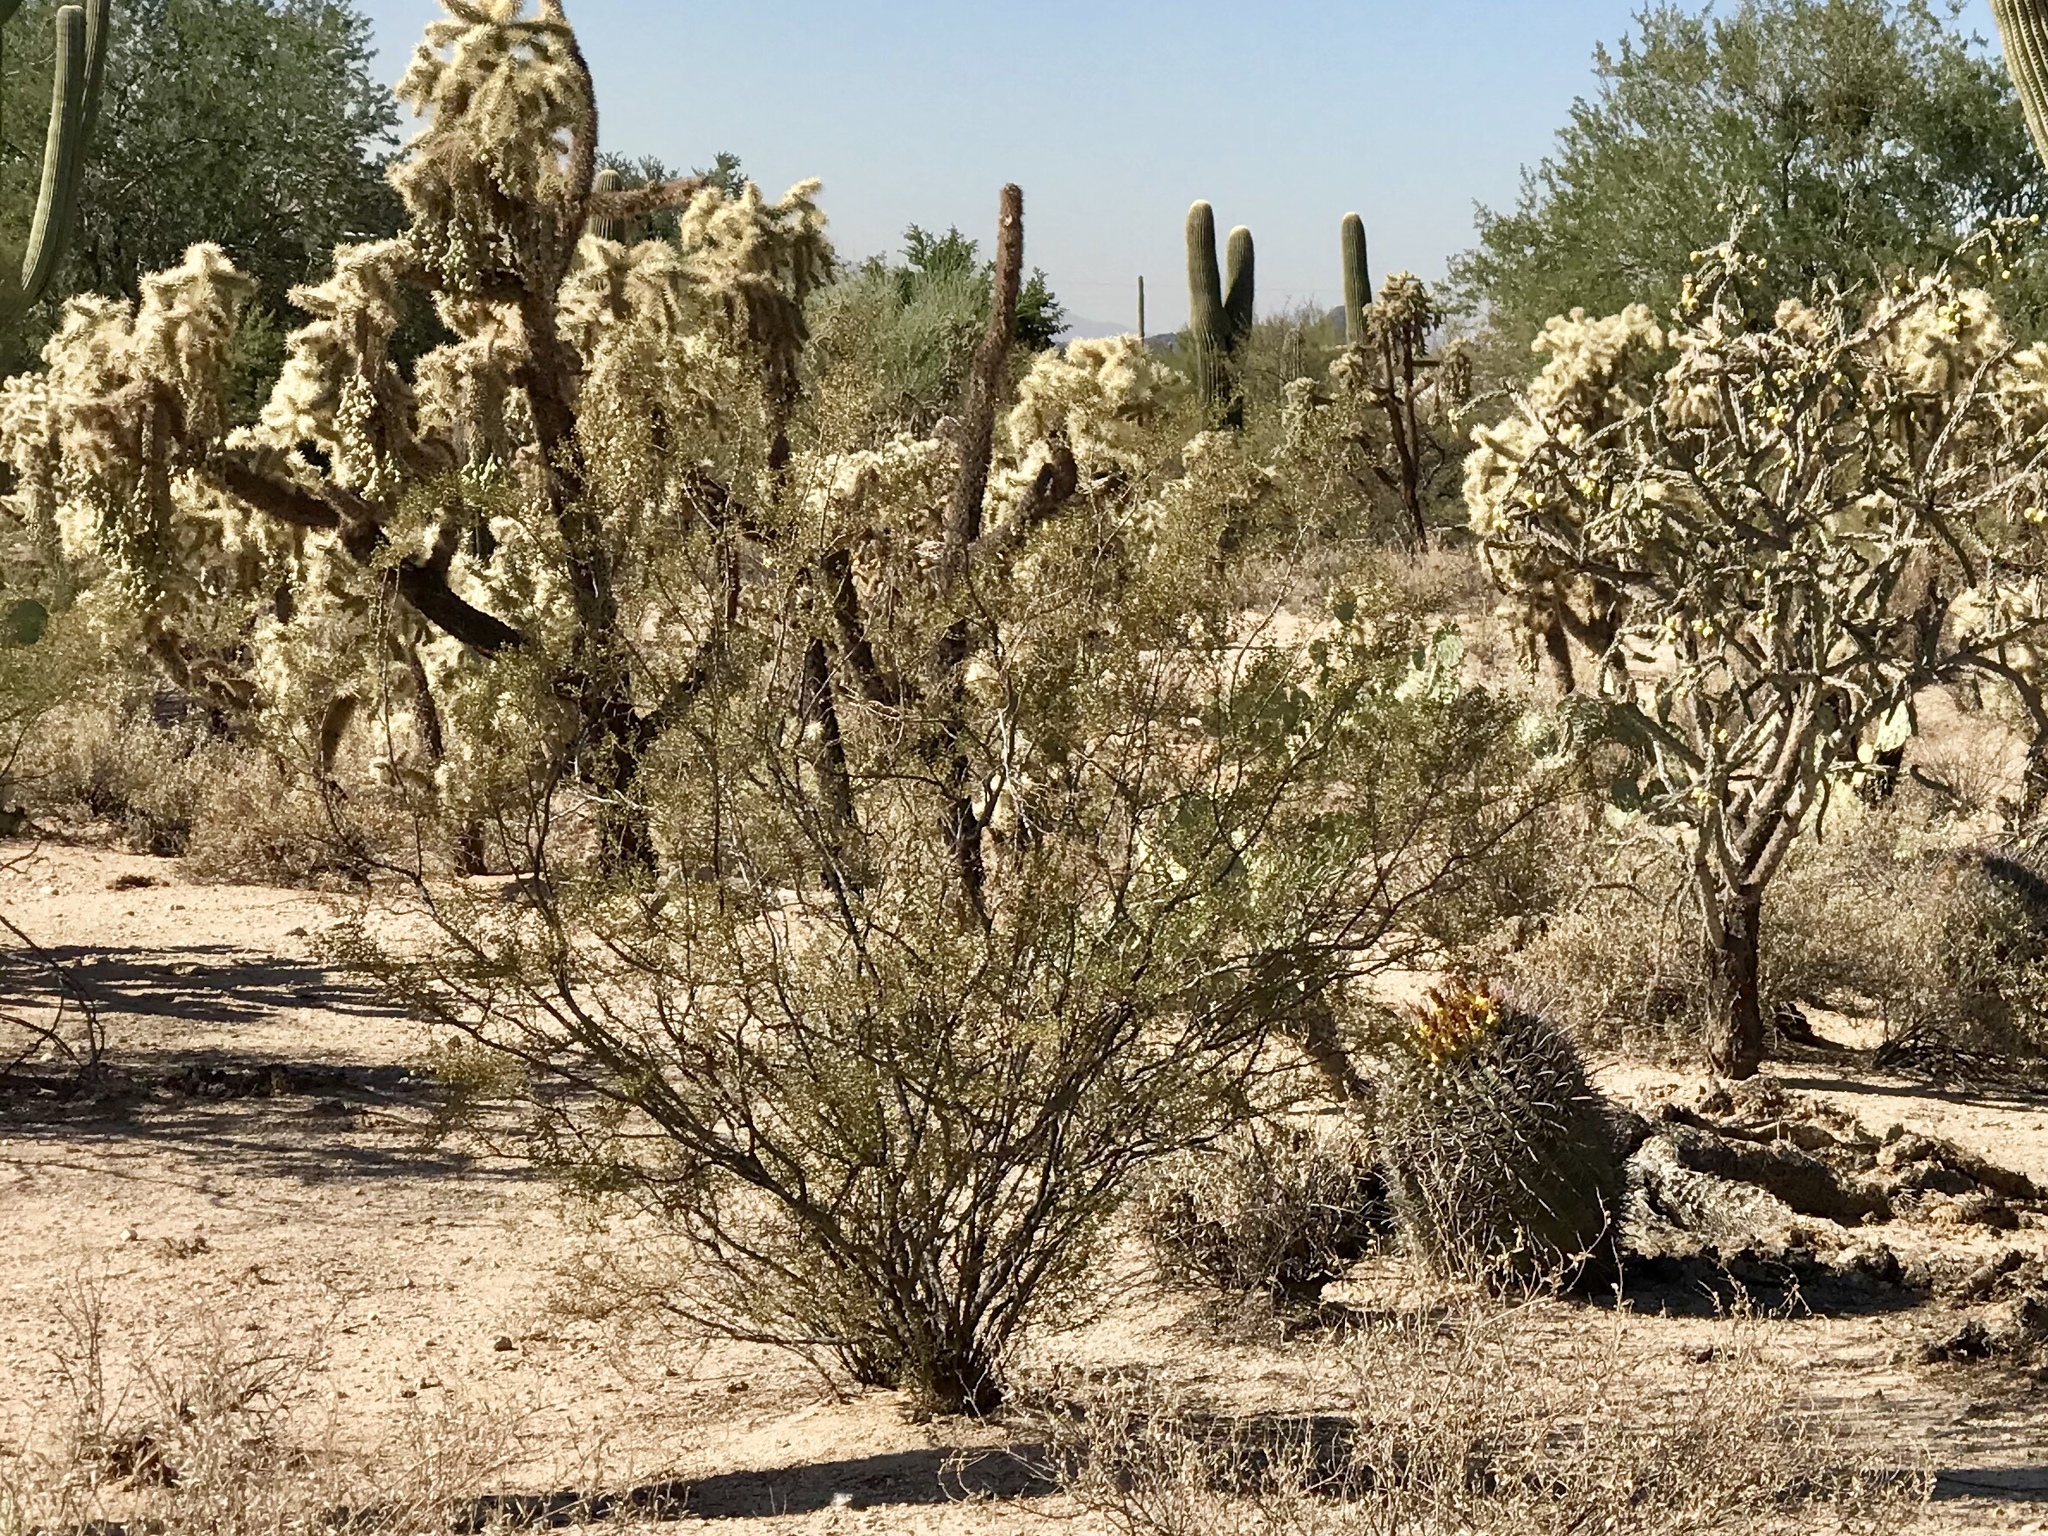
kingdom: Plantae
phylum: Tracheophyta
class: Magnoliopsida
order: Zygophyllales
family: Zygophyllaceae
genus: Larrea
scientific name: Larrea tridentata
